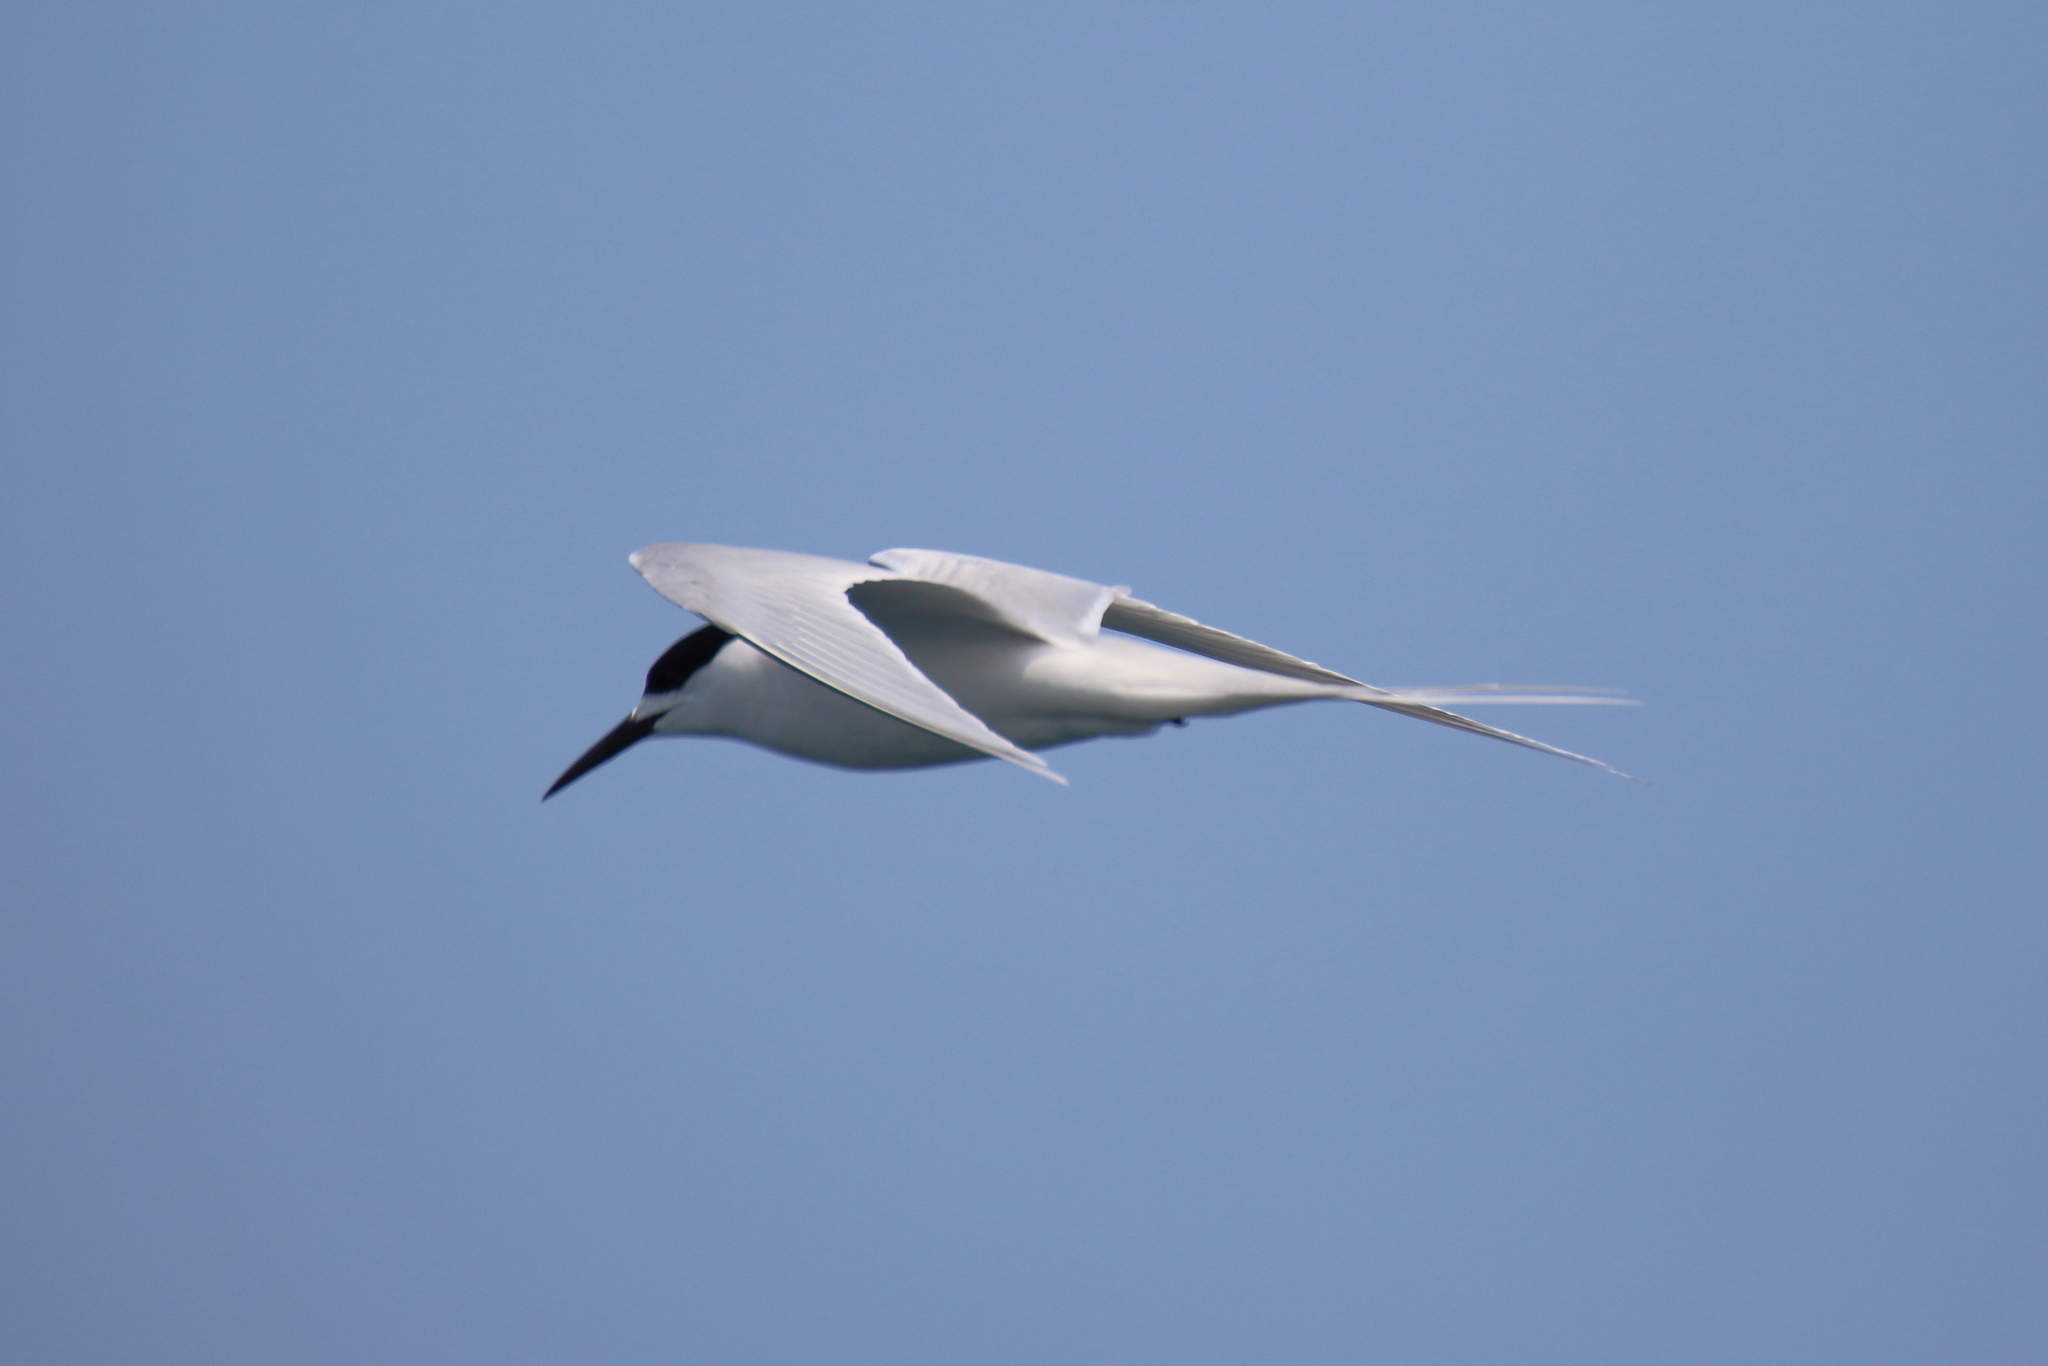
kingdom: Animalia
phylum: Chordata
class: Aves
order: Charadriiformes
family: Laridae
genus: Sterna
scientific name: Sterna striata
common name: White-fronted tern
